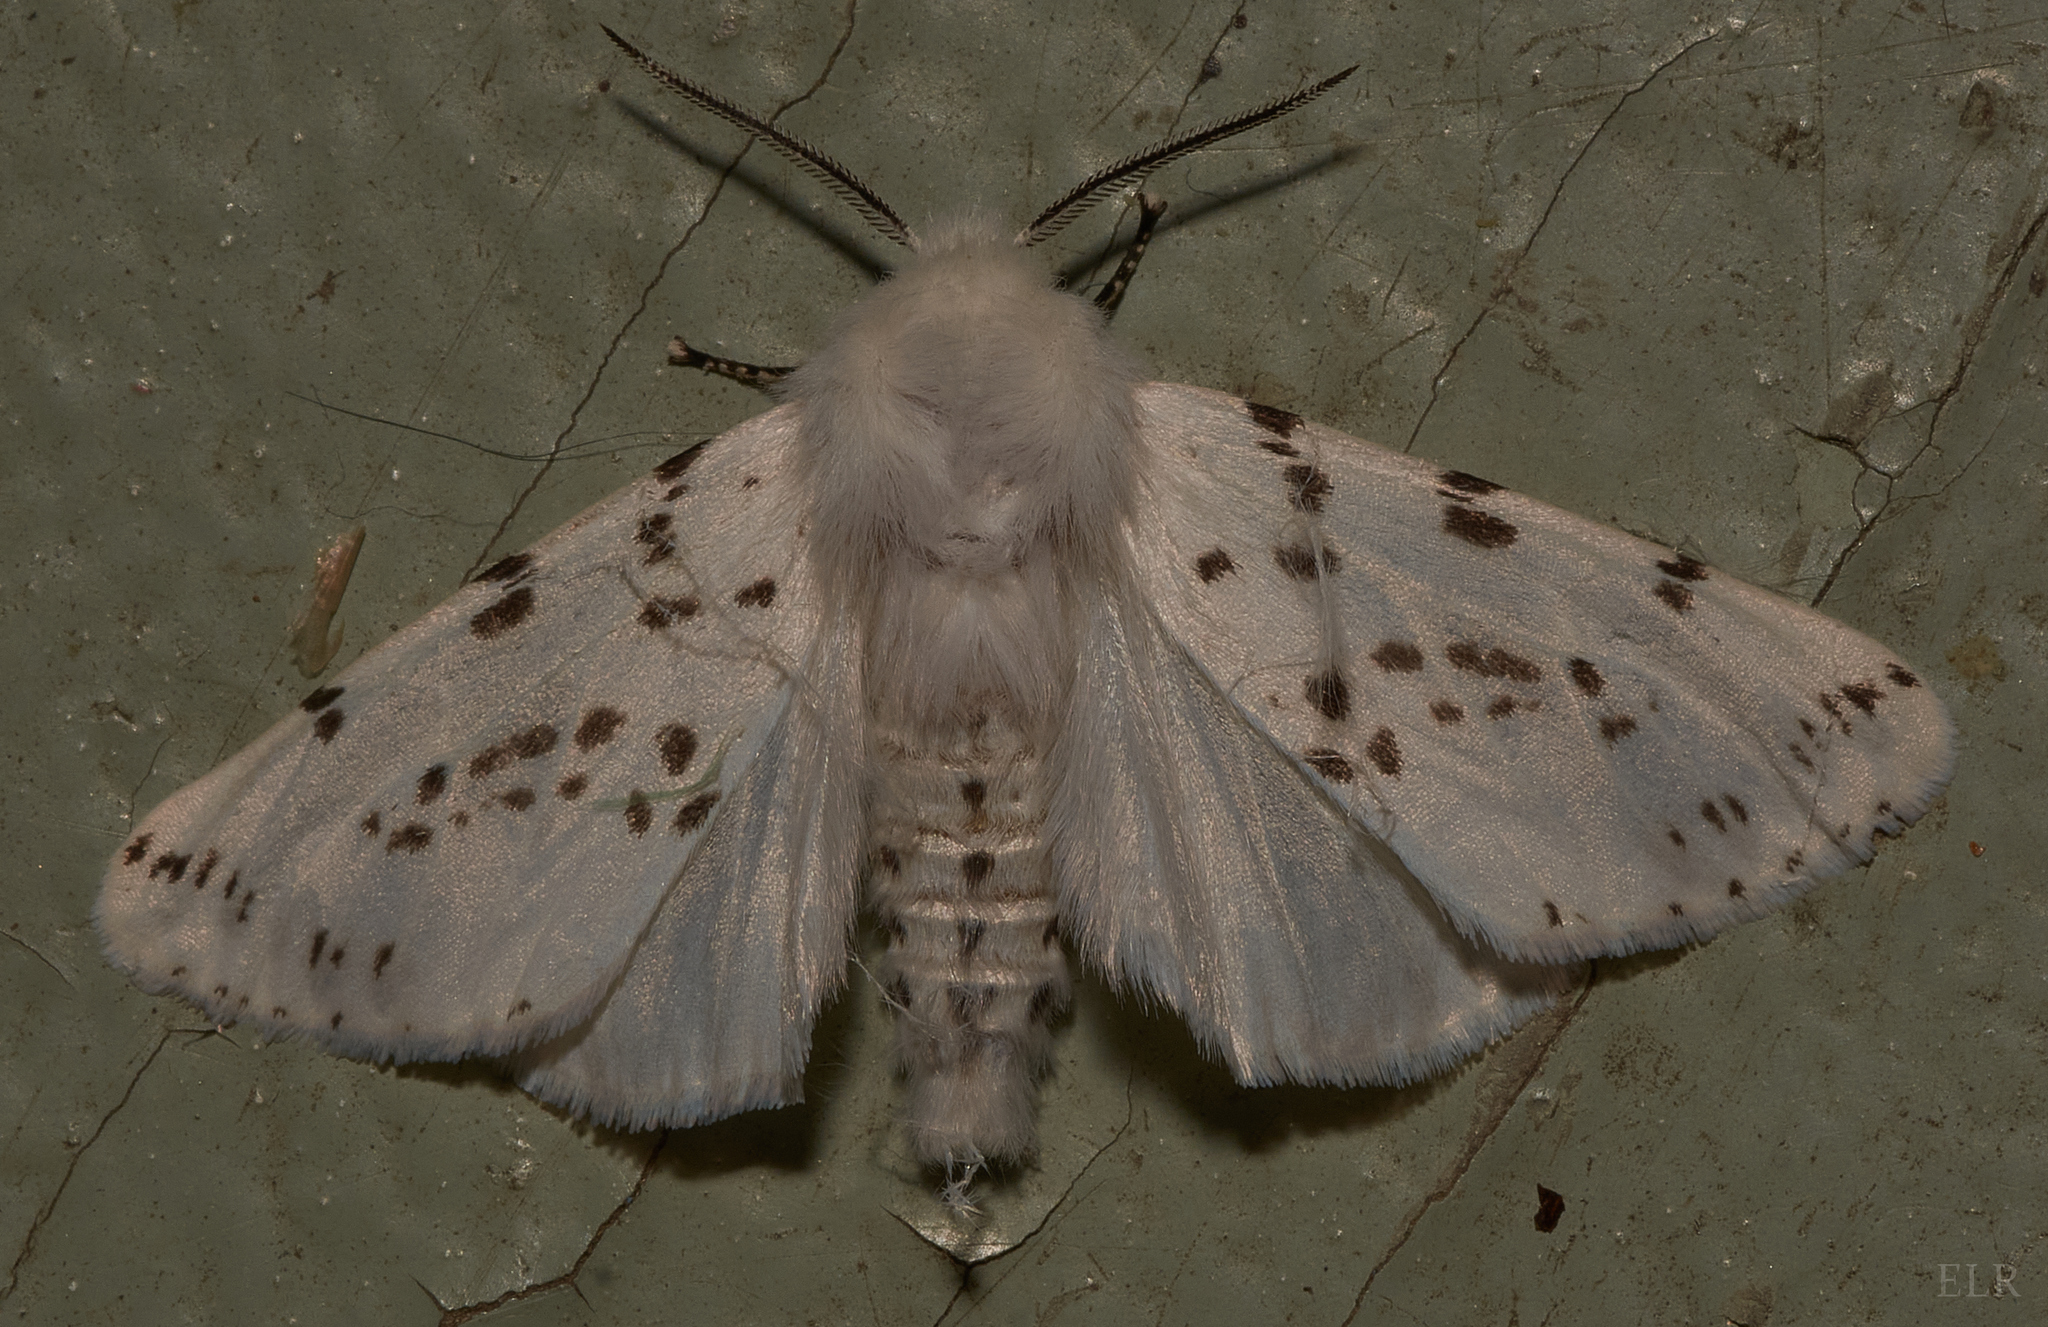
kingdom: Animalia
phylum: Arthropoda
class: Insecta
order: Lepidoptera
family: Erebidae
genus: Hyphantria
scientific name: Hyphantria cunea
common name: American white moth
